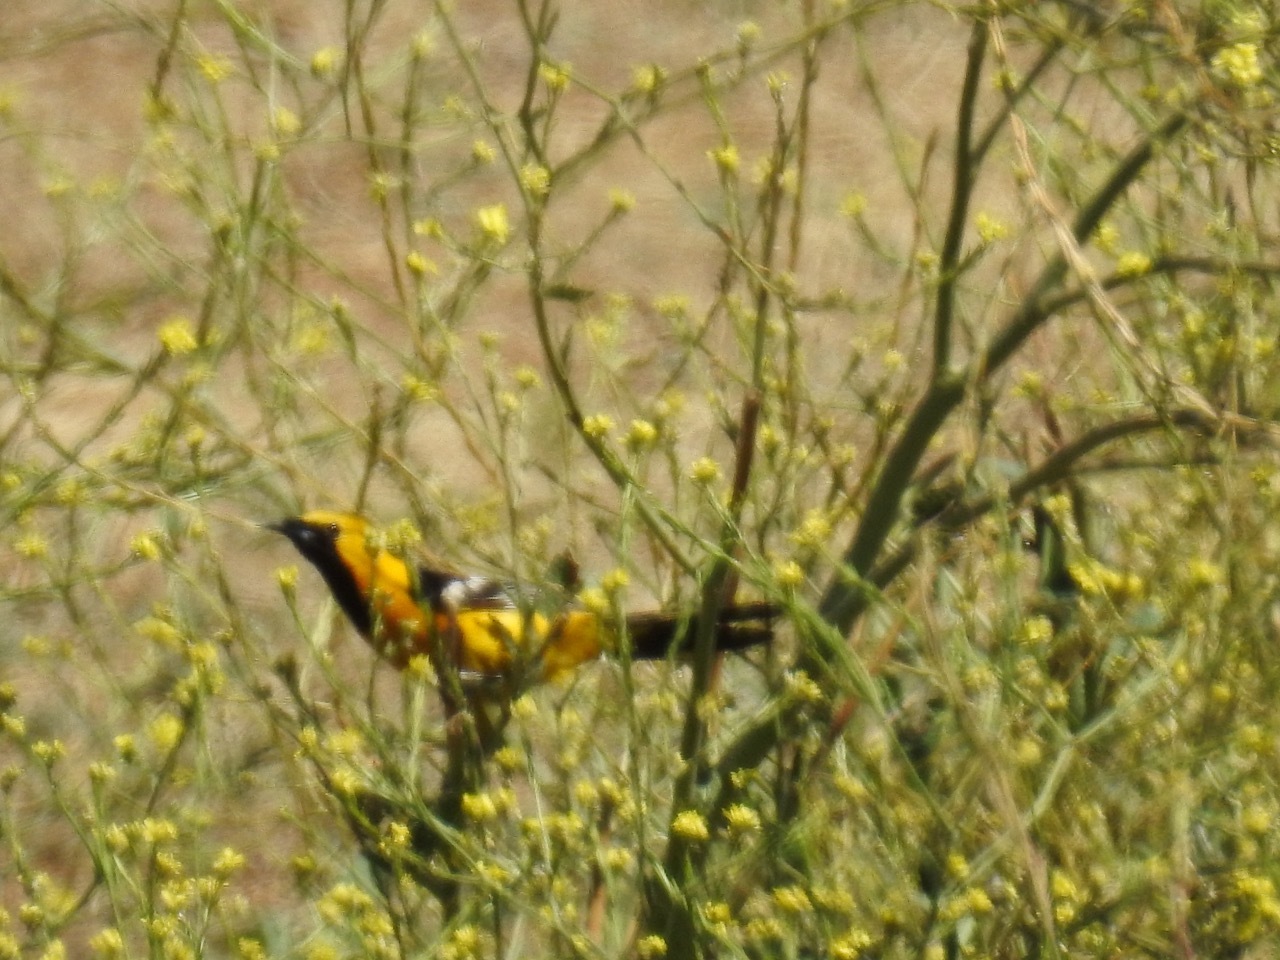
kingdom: Animalia
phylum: Chordata
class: Aves
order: Passeriformes
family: Icteridae
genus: Icterus
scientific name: Icterus cucullatus
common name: Hooded oriole
